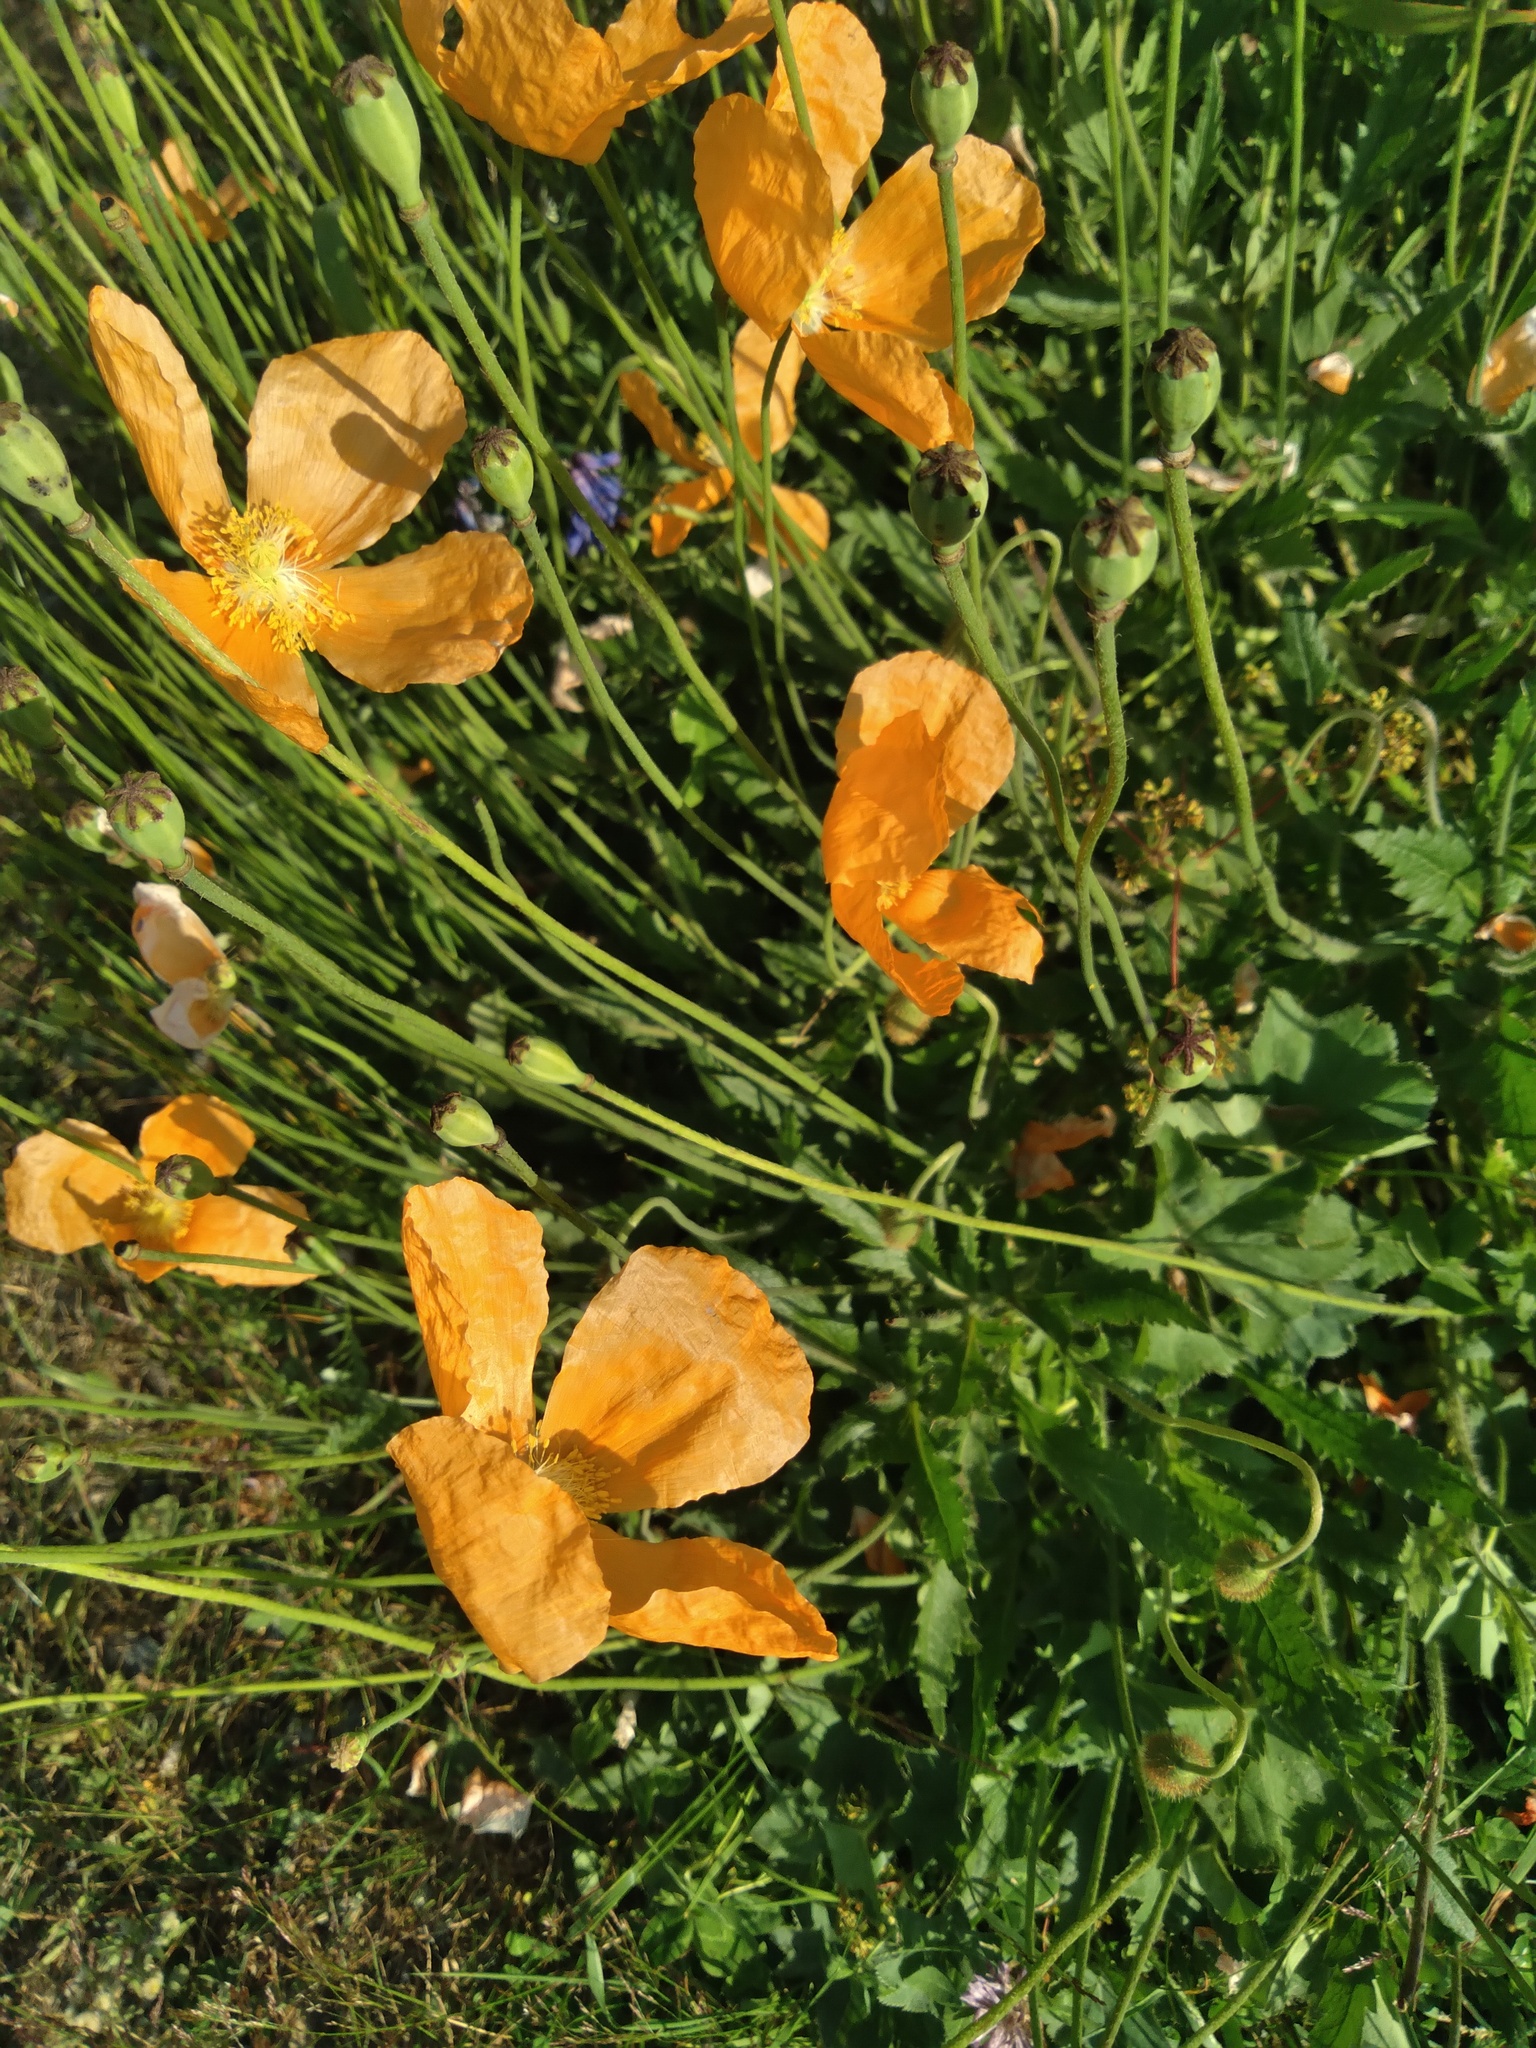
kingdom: Plantae
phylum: Tracheophyta
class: Magnoliopsida
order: Ranunculales
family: Papaveraceae
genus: Papaver
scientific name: Papaver oreophilum
